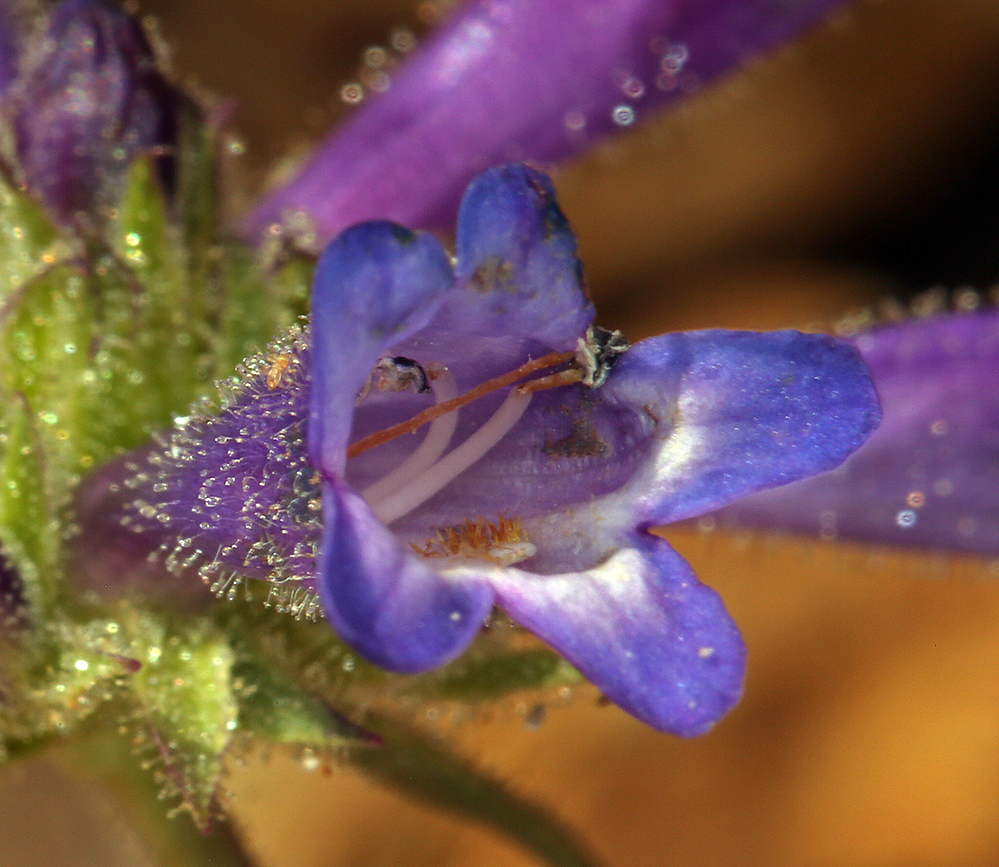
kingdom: Plantae
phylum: Tracheophyta
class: Magnoliopsida
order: Lamiales
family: Plantaginaceae
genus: Penstemon
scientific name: Penstemon heterodoxus
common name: Sierran penstemon
